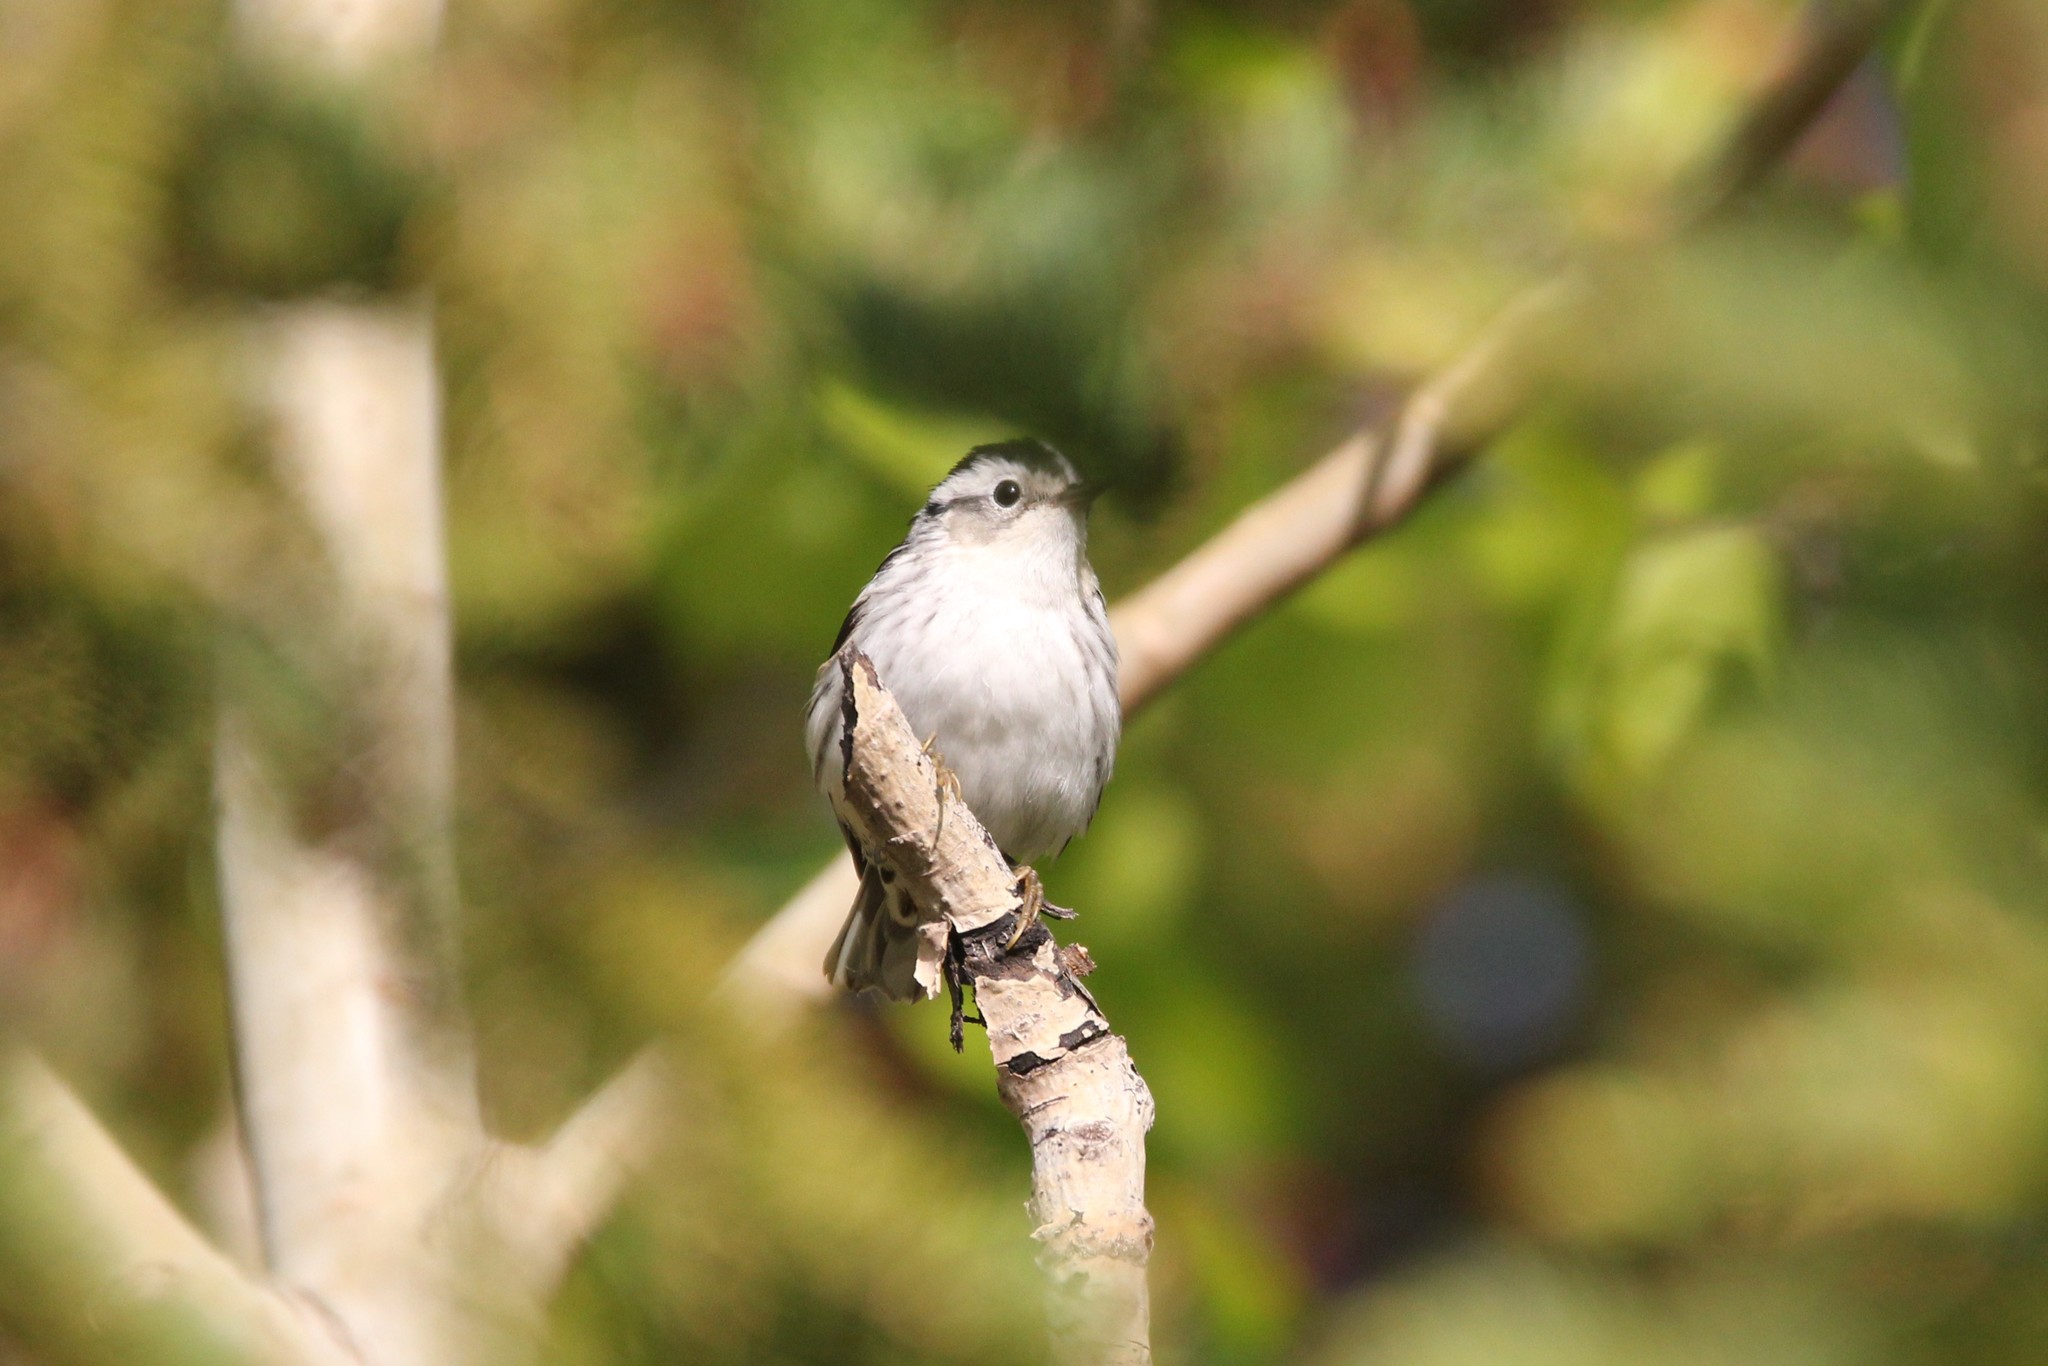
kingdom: Animalia
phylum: Chordata
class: Aves
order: Passeriformes
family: Parulidae
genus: Mniotilta
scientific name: Mniotilta varia
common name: Black-and-white warbler
